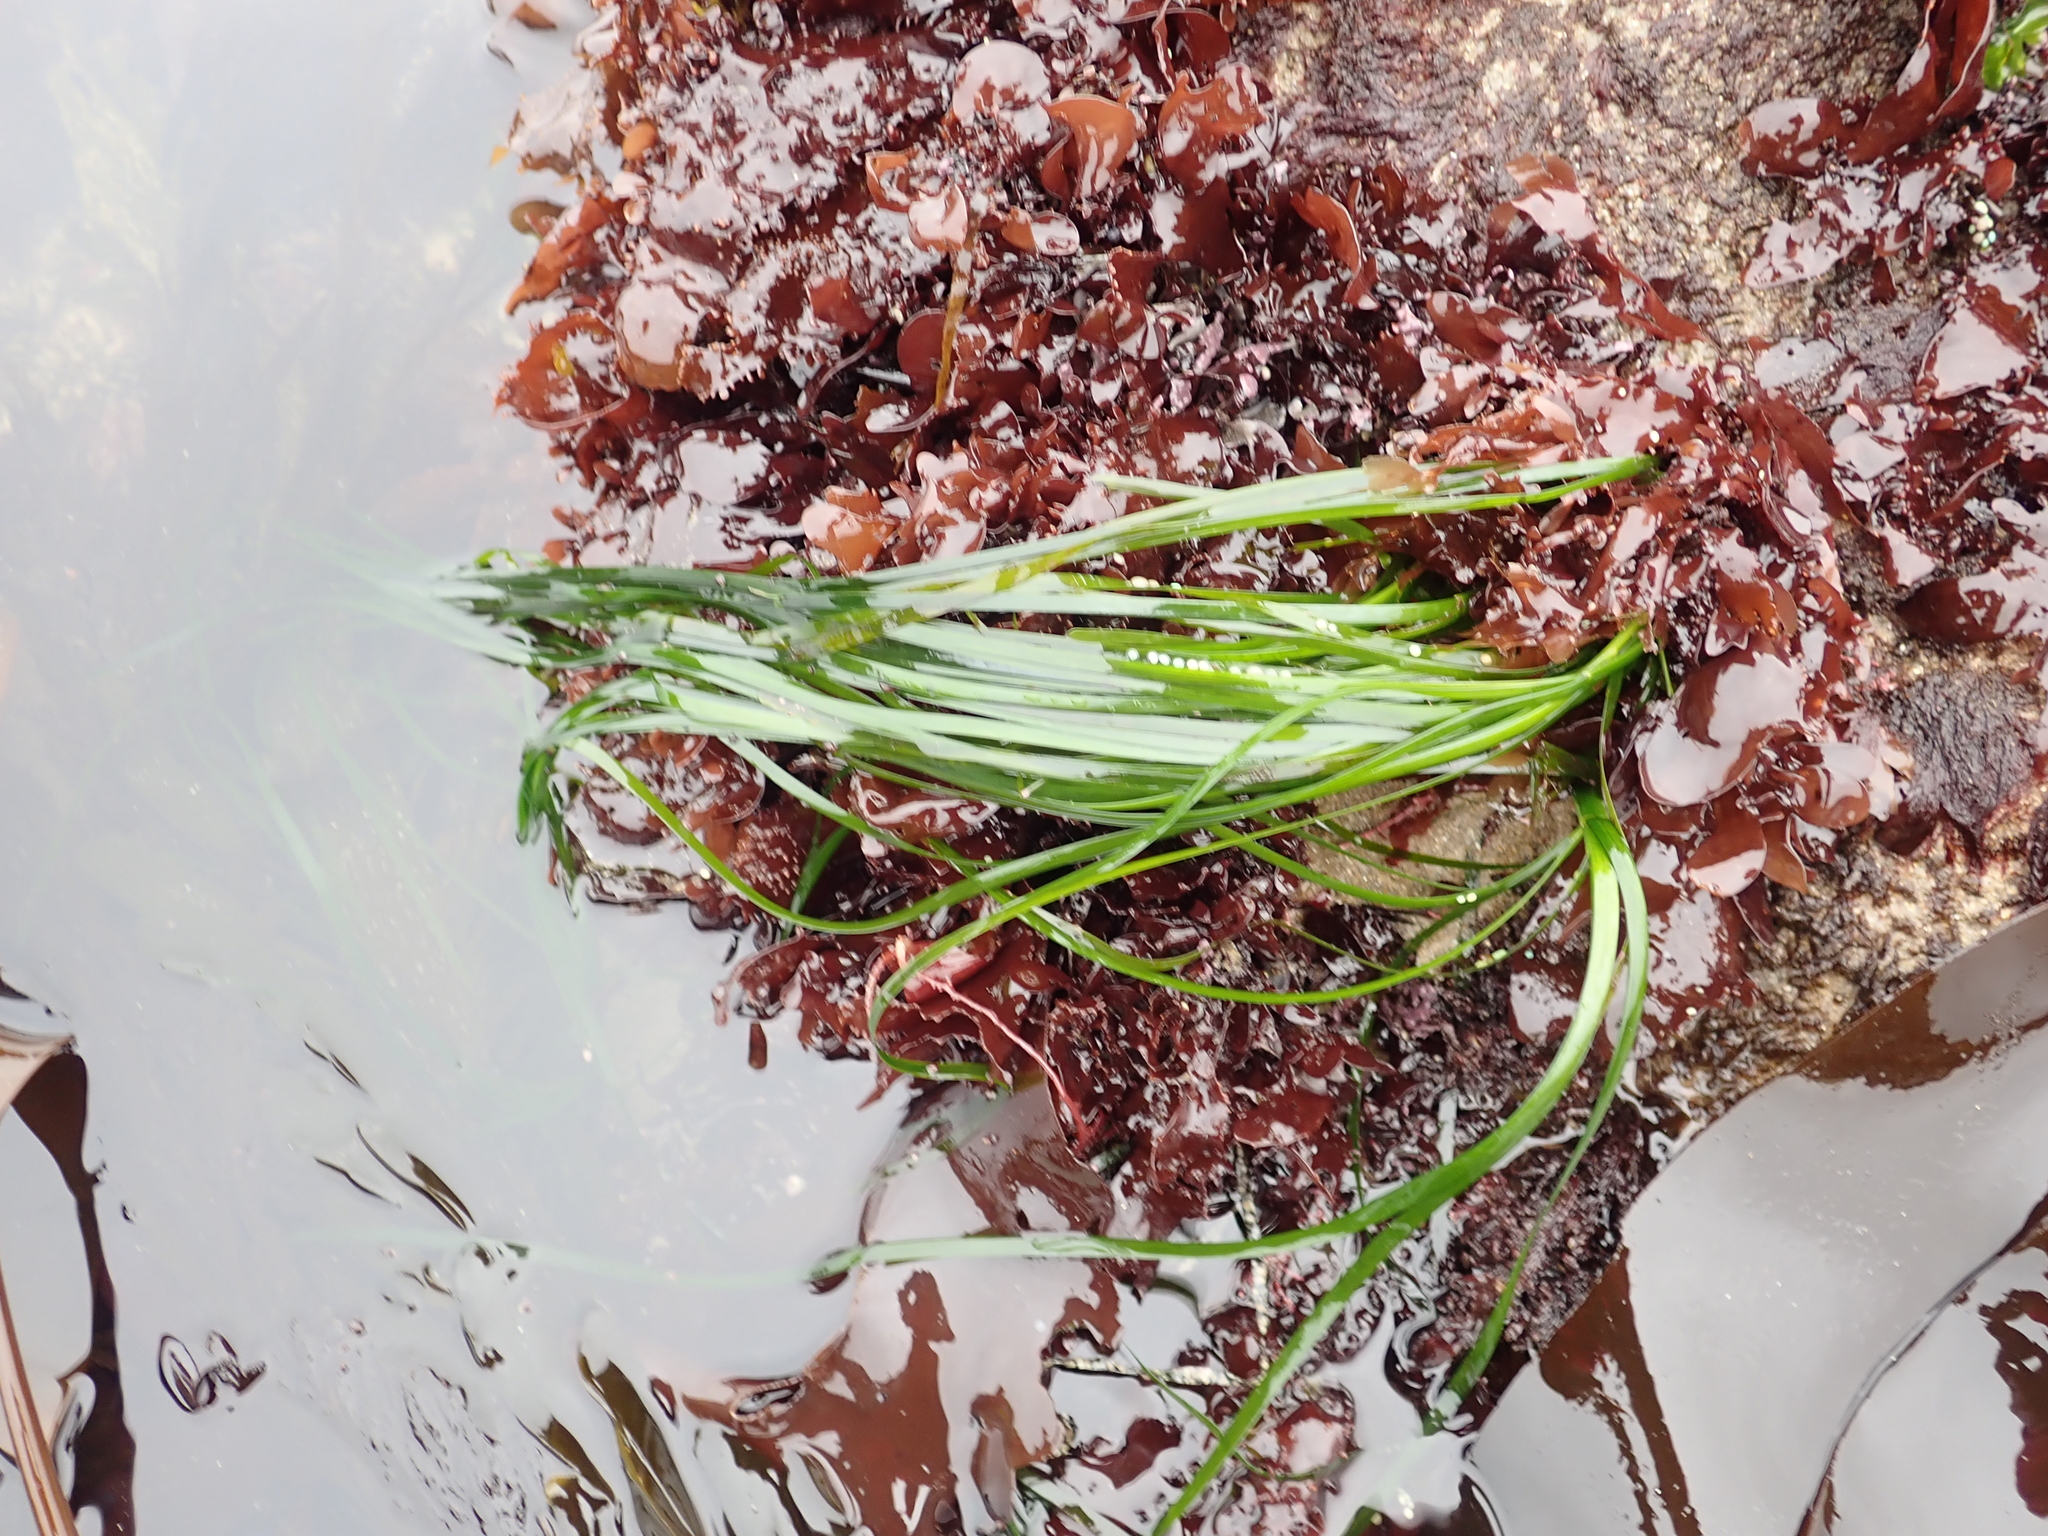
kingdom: Plantae
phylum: Tracheophyta
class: Liliopsida
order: Alismatales
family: Zosteraceae
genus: Phyllospadix
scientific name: Phyllospadix scouleri
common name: Species code: ps
